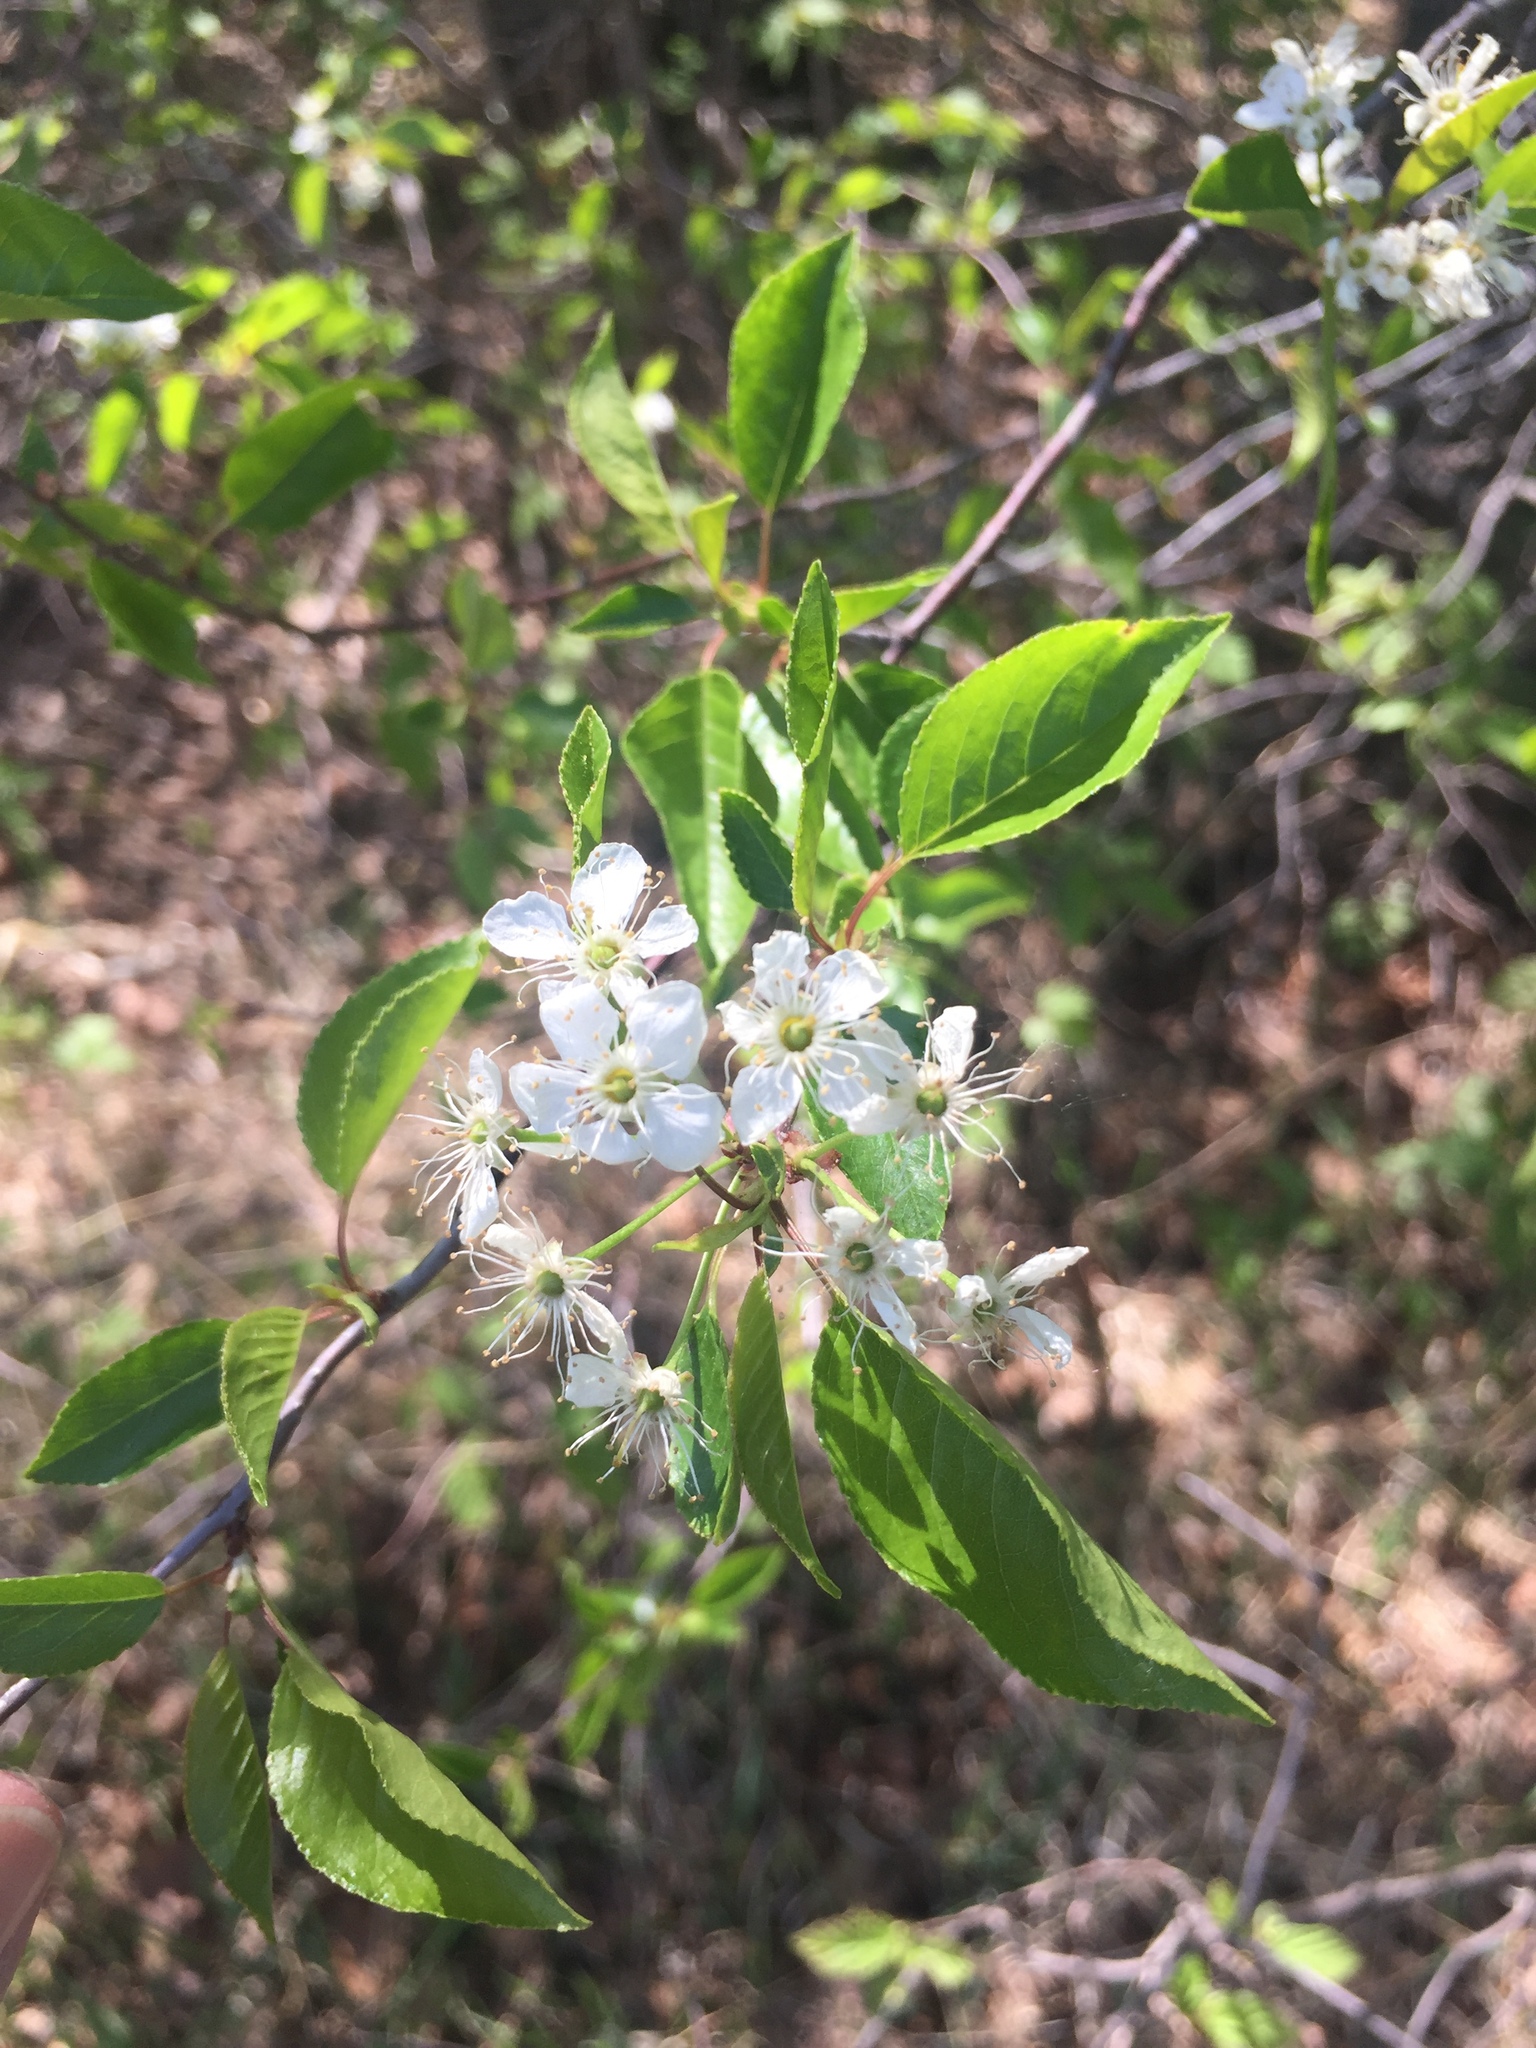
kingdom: Plantae
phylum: Tracheophyta
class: Magnoliopsida
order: Rosales
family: Rosaceae
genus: Prunus
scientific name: Prunus pensylvanica
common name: Pin cherry
